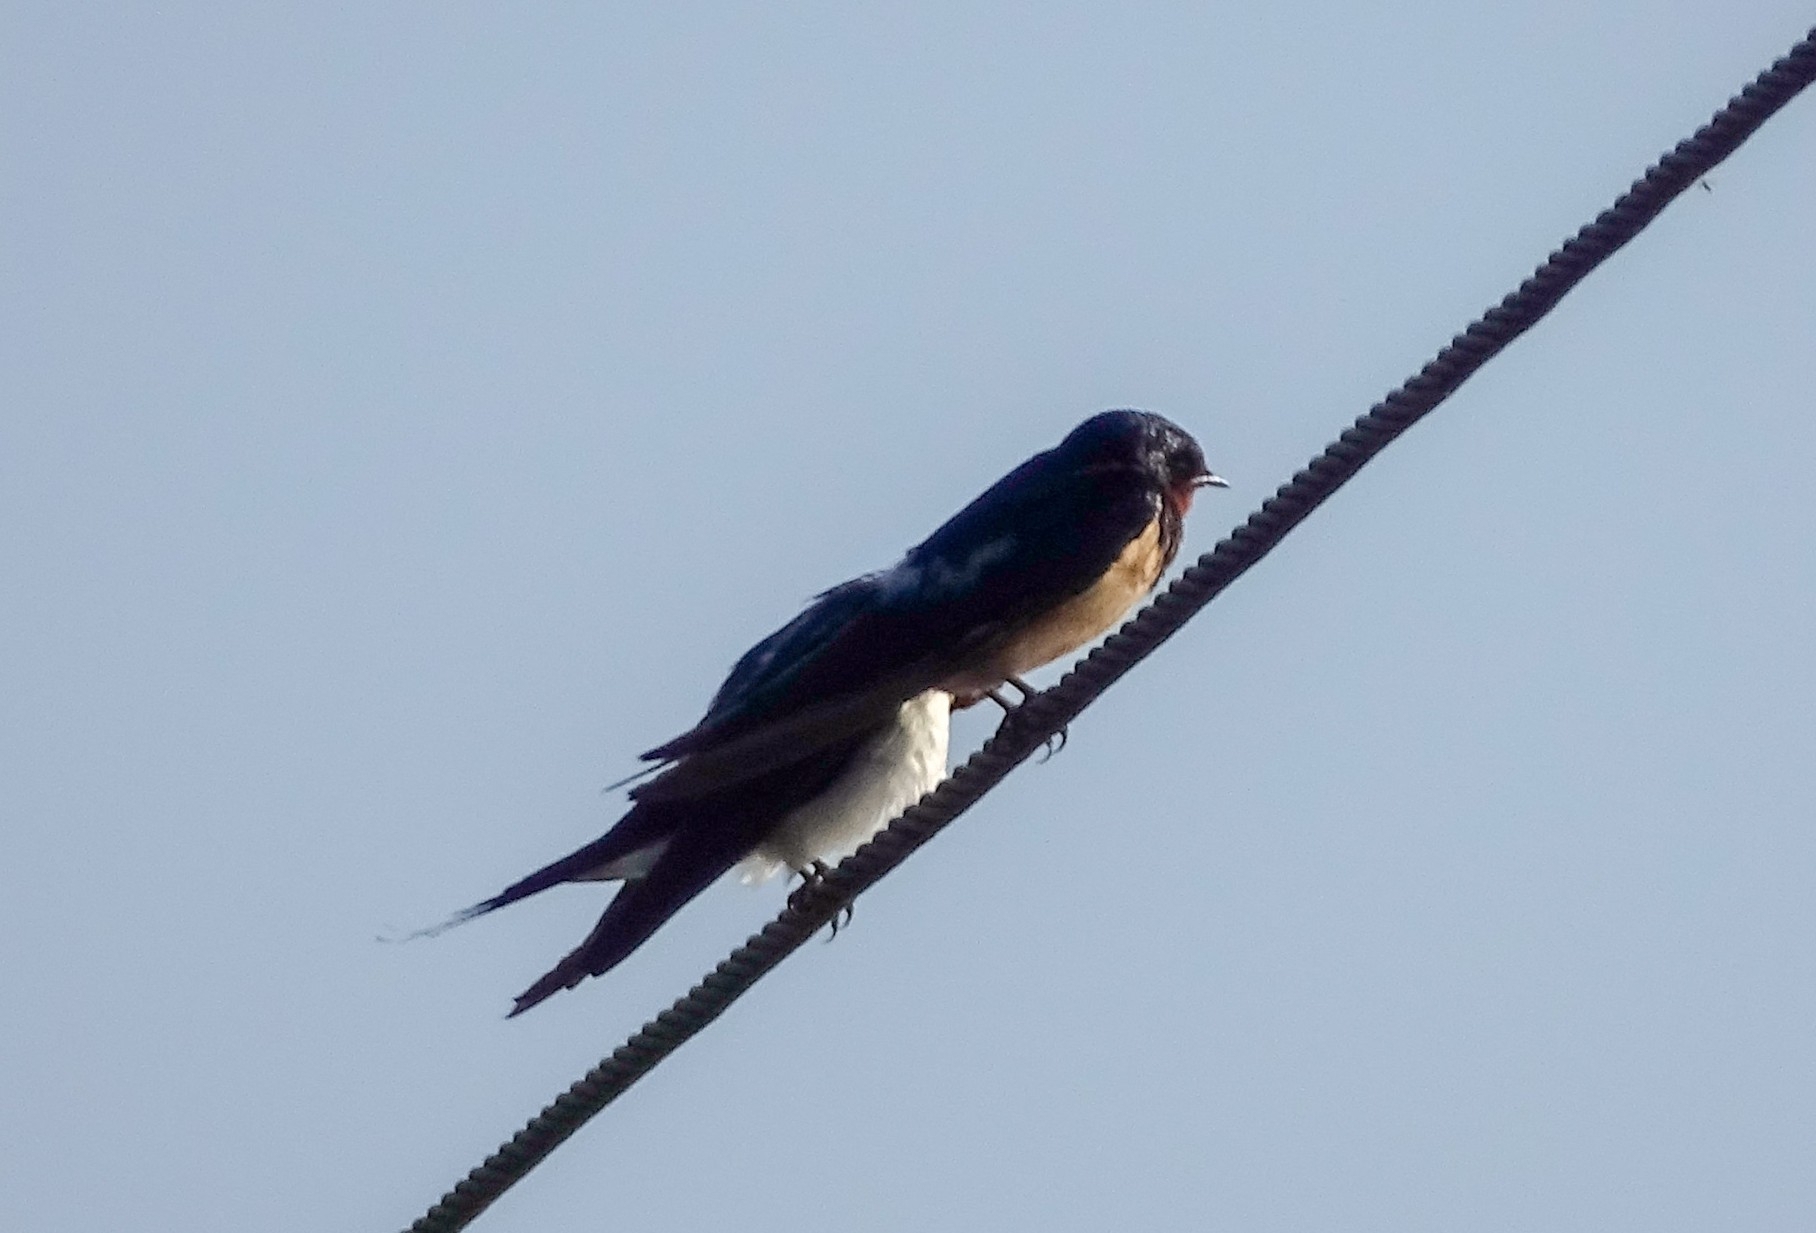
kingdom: Animalia
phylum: Chordata
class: Aves
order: Passeriformes
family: Hirundinidae
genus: Hirundo
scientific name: Hirundo rustica
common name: Barn swallow
